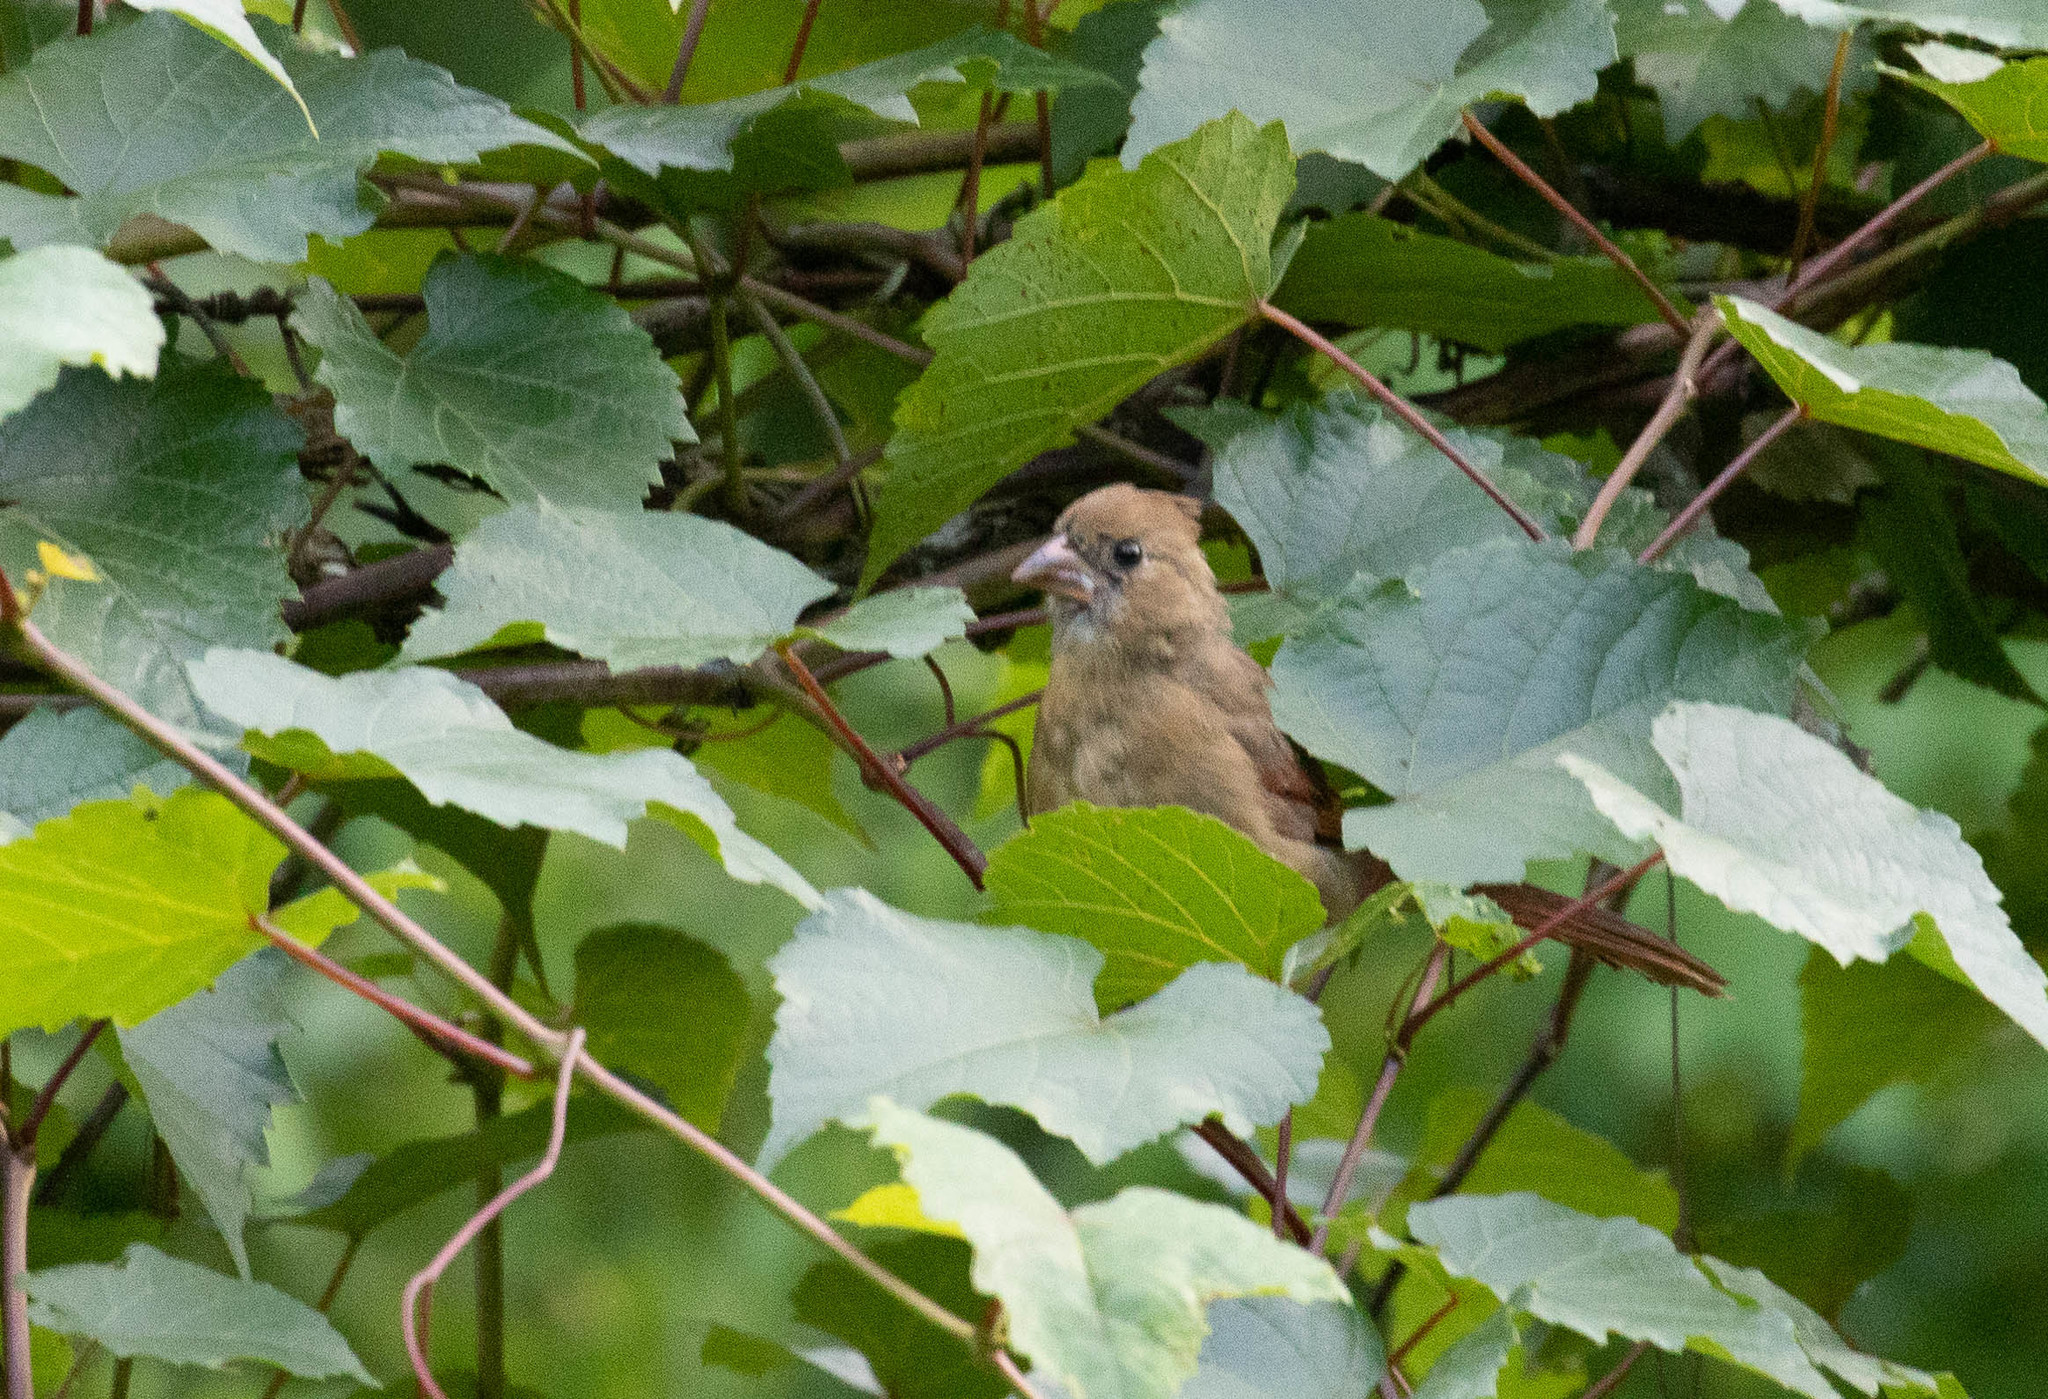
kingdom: Animalia
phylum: Chordata
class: Aves
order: Passeriformes
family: Cardinalidae
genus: Cardinalis
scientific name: Cardinalis cardinalis
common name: Northern cardinal
